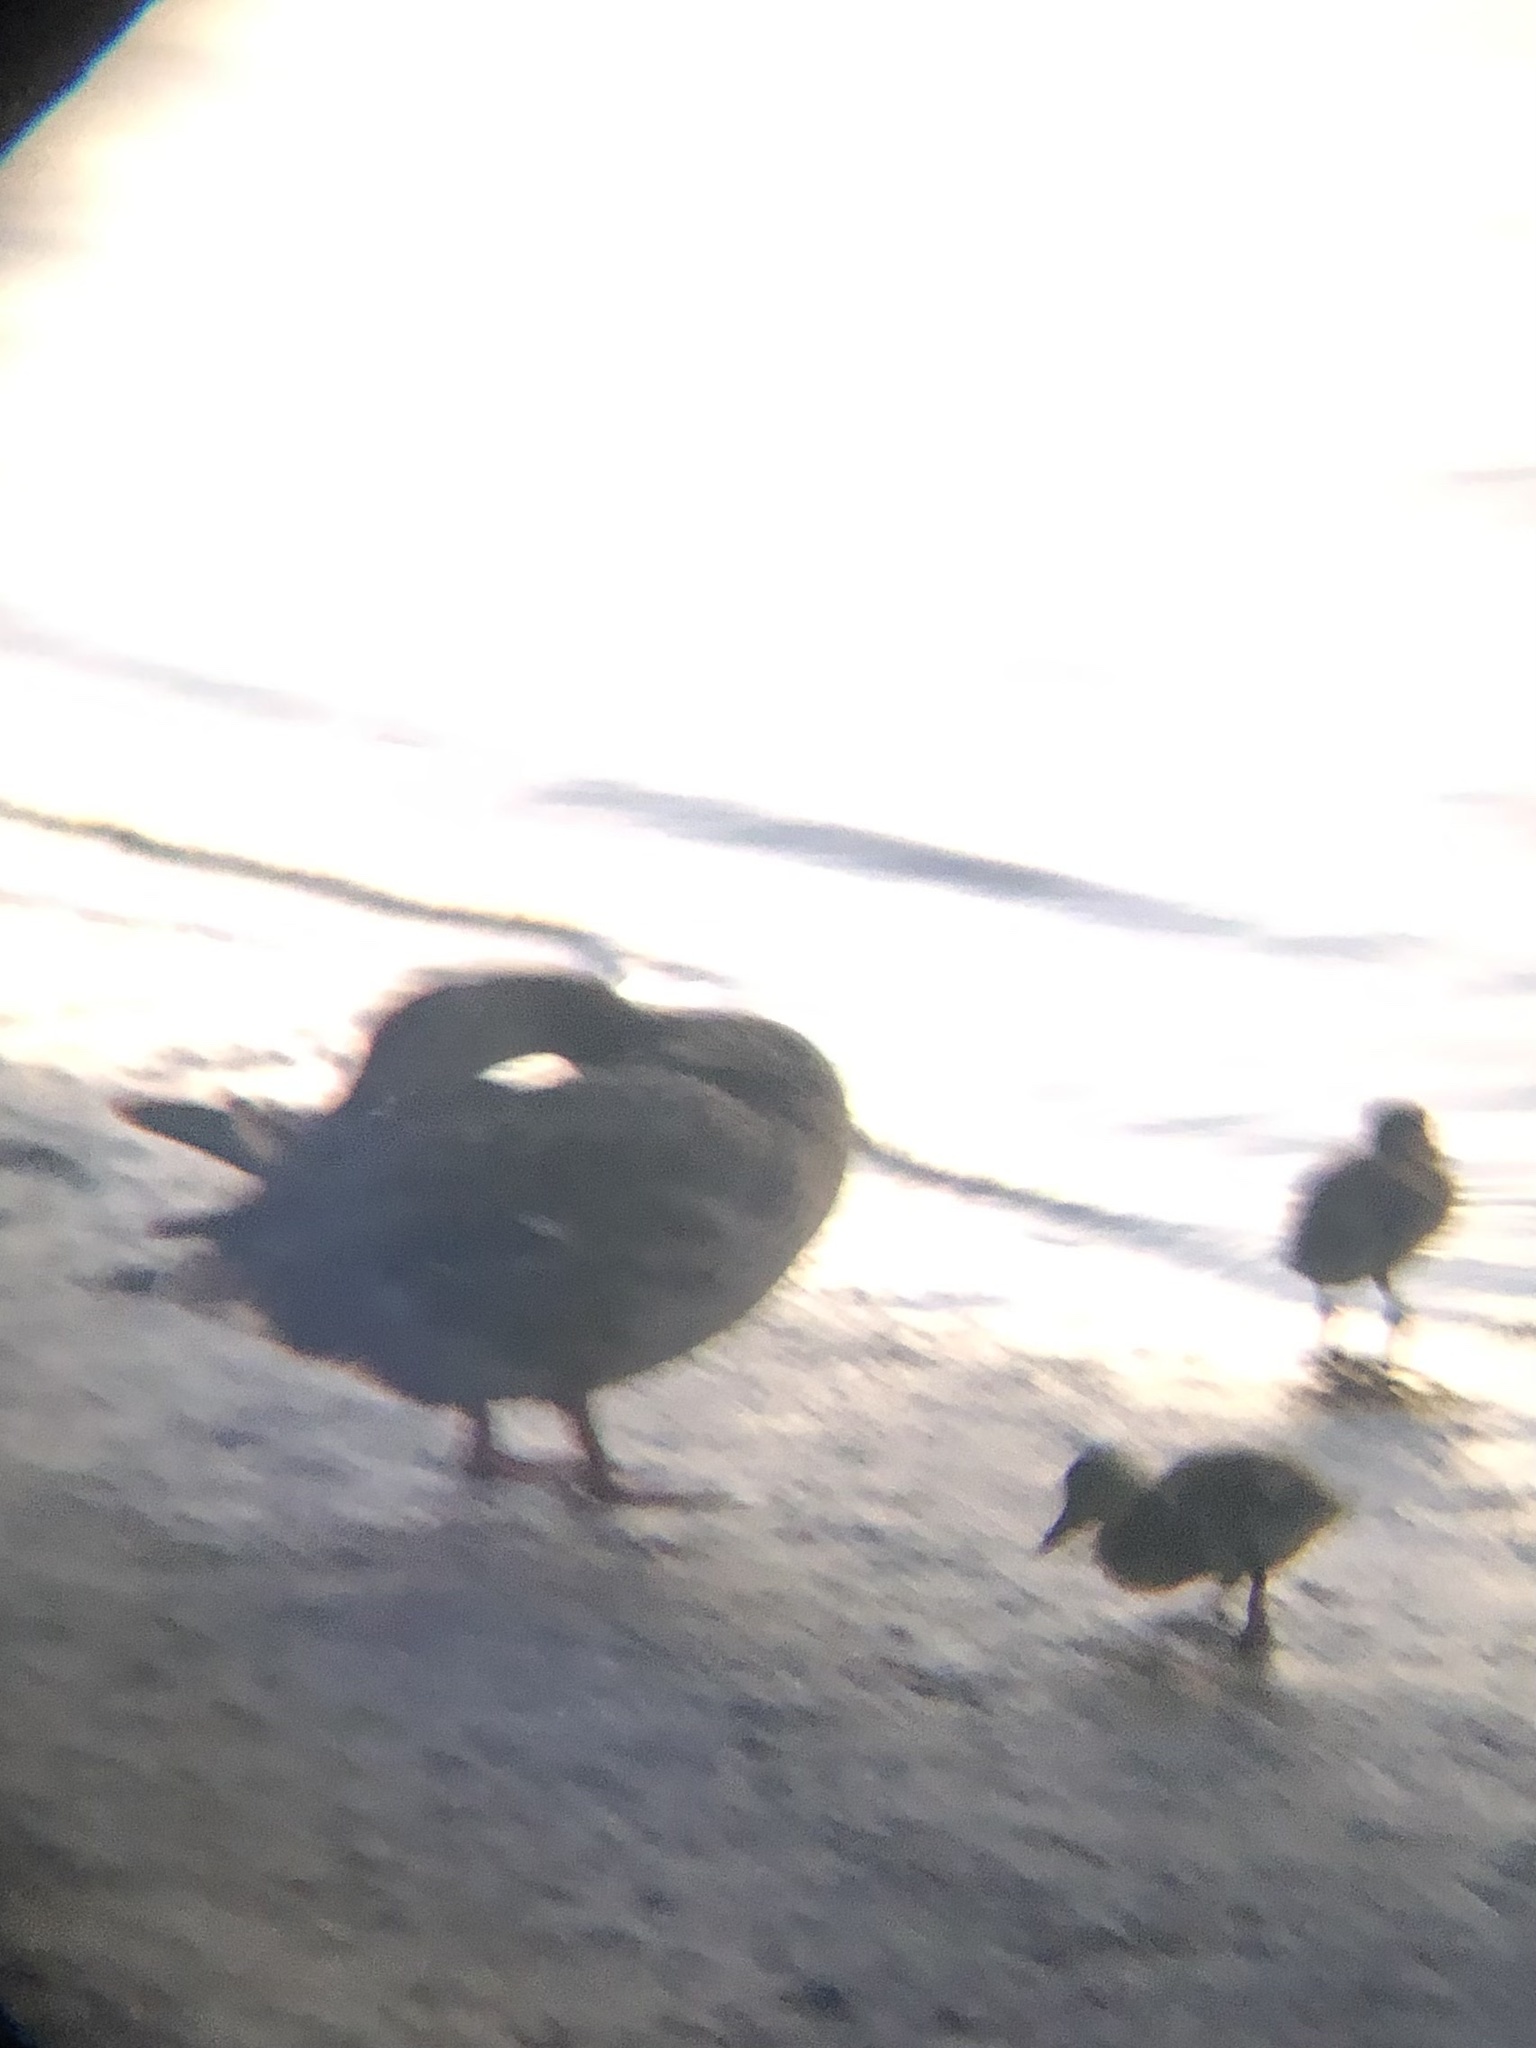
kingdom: Animalia
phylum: Chordata
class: Aves
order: Anseriformes
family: Anatidae
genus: Anas
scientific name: Anas platyrhynchos
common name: Mallard
